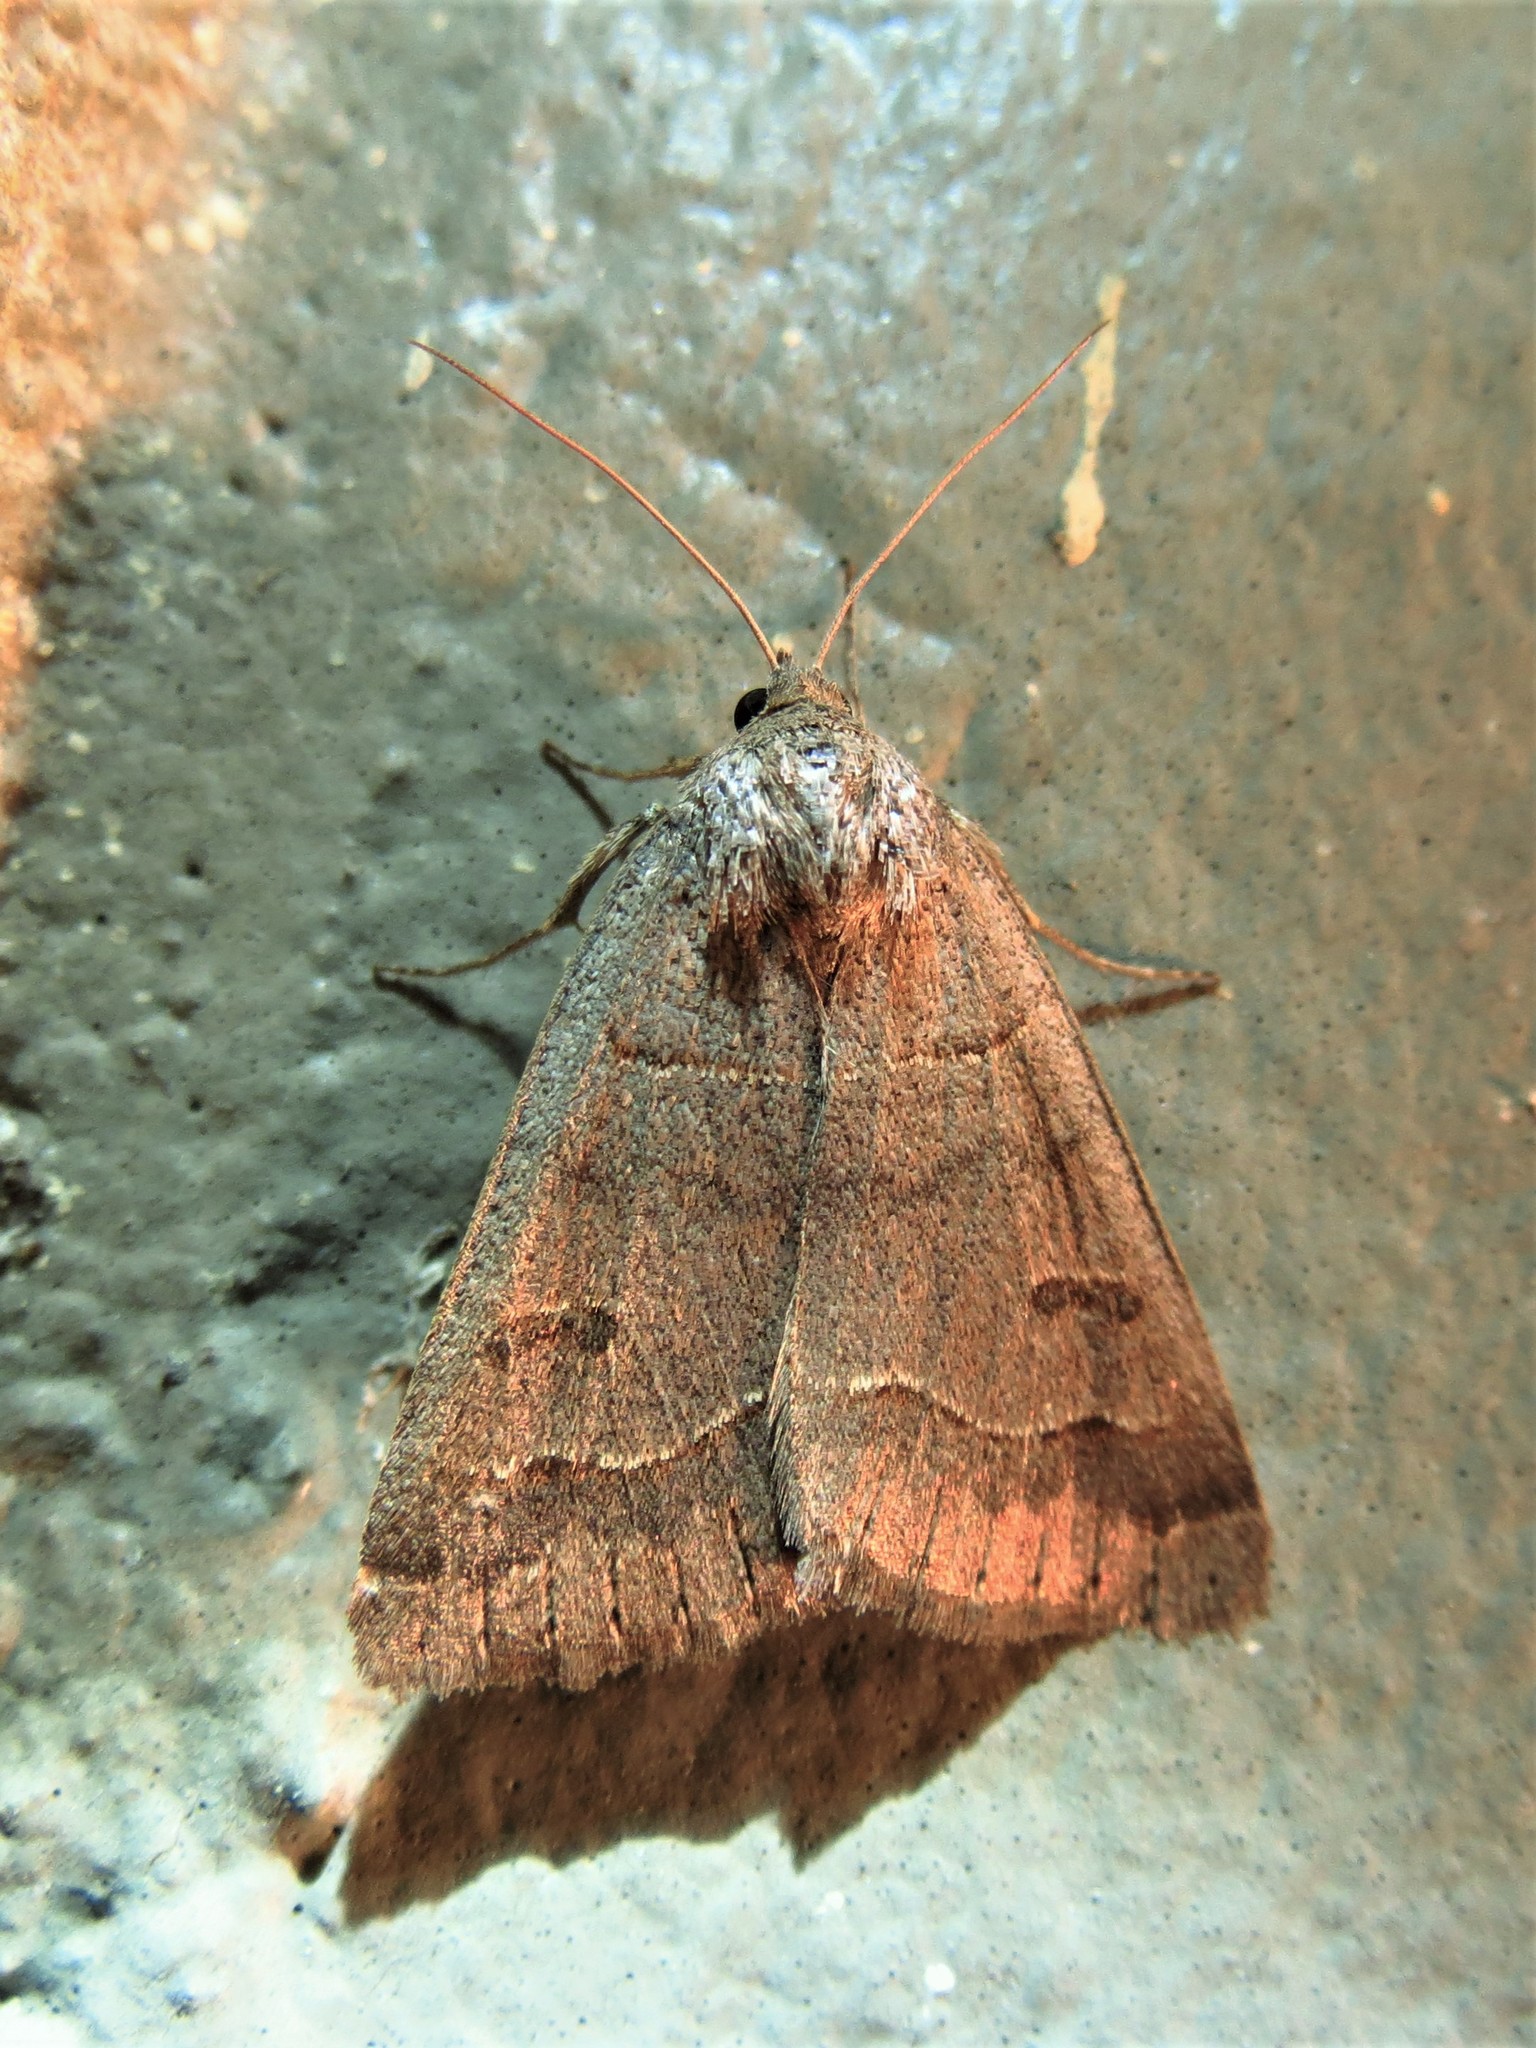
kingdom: Animalia
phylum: Arthropoda
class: Insecta
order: Lepidoptera
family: Erebidae
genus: Phoberia
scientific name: Phoberia atomaris
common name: Common oak moth
